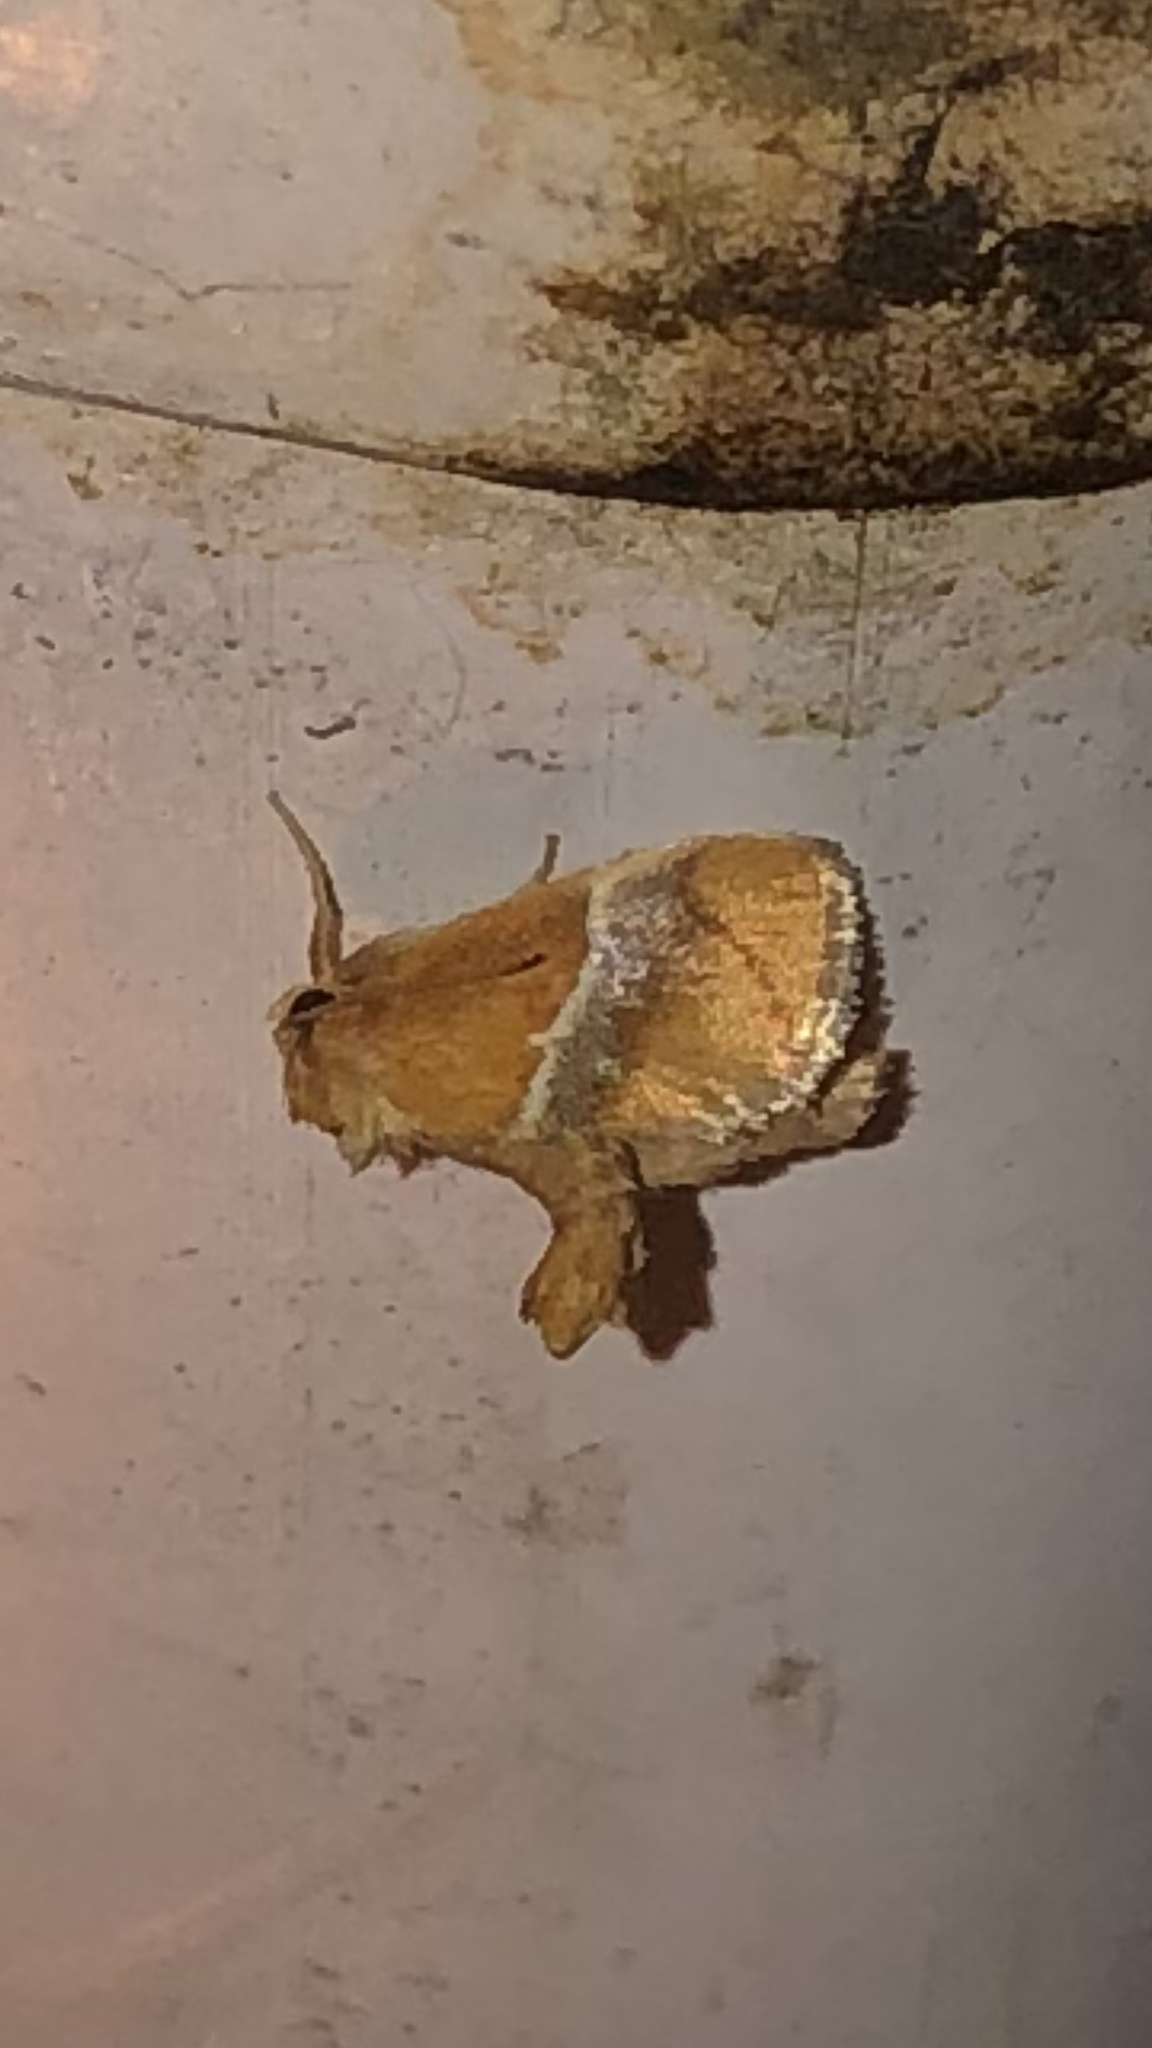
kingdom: Animalia
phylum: Arthropoda
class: Insecta
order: Lepidoptera
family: Limacodidae
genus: Lithacodes
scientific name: Lithacodes fasciola
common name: Yellow-shouldered slug moth
